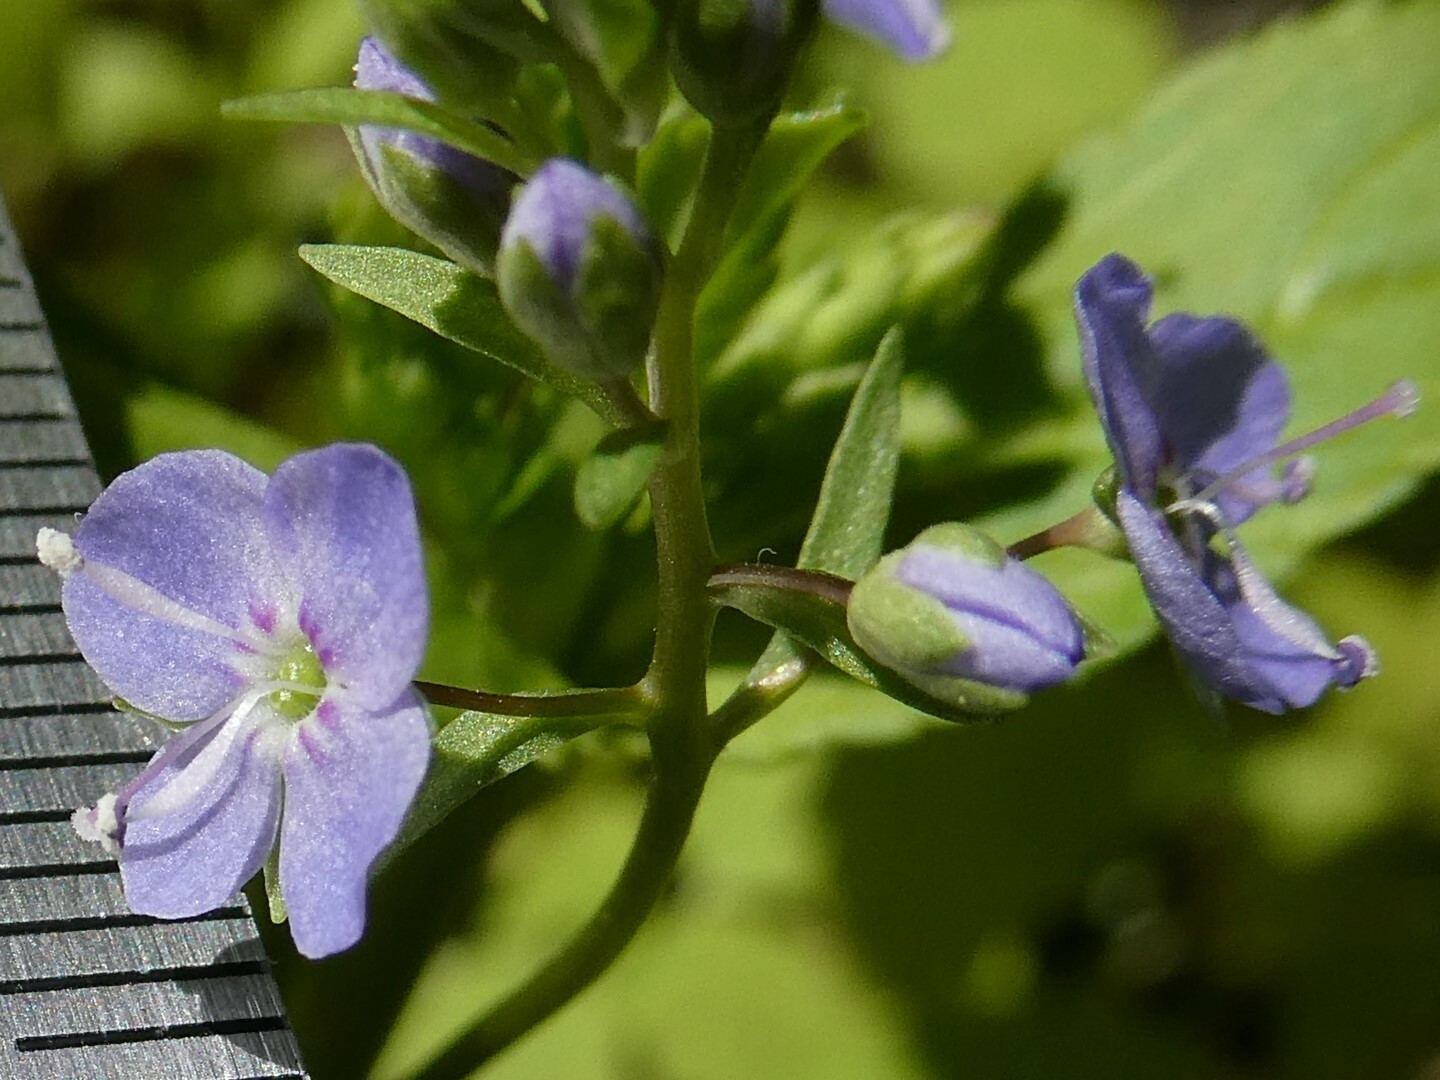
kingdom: Plantae
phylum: Tracheophyta
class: Magnoliopsida
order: Lamiales
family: Plantaginaceae
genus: Veronica
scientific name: Veronica americana
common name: American brooklime
